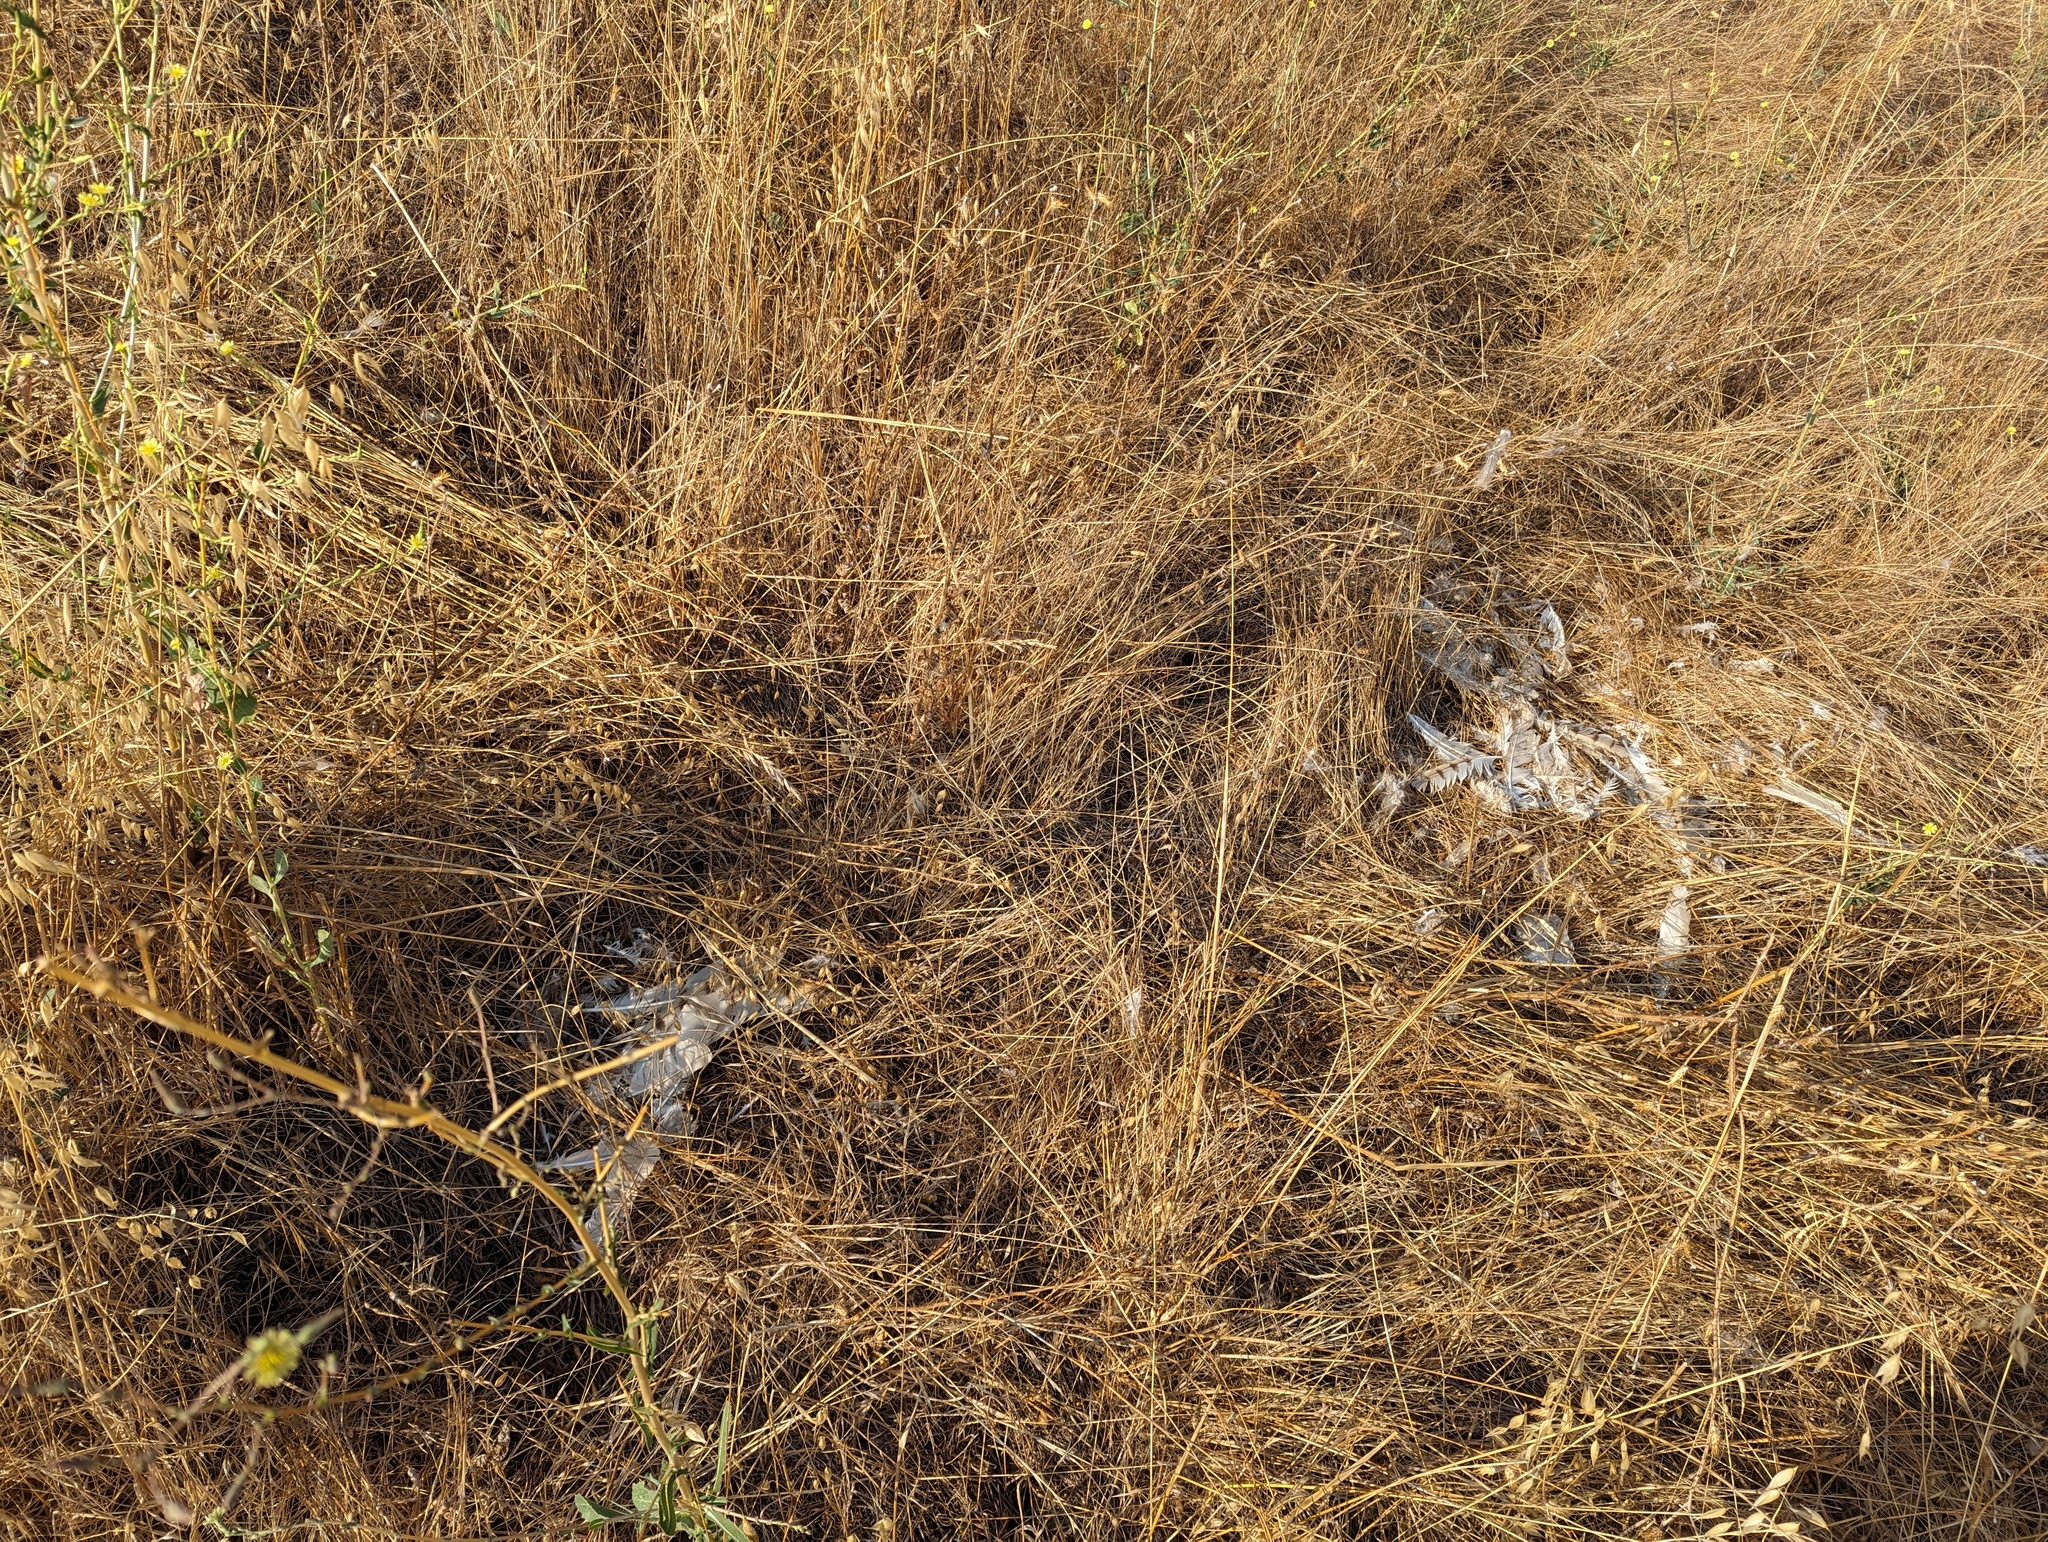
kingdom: Animalia
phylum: Chordata
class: Aves
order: Strigiformes
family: Tytonidae
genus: Tyto
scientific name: Tyto alba
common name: Barn owl
